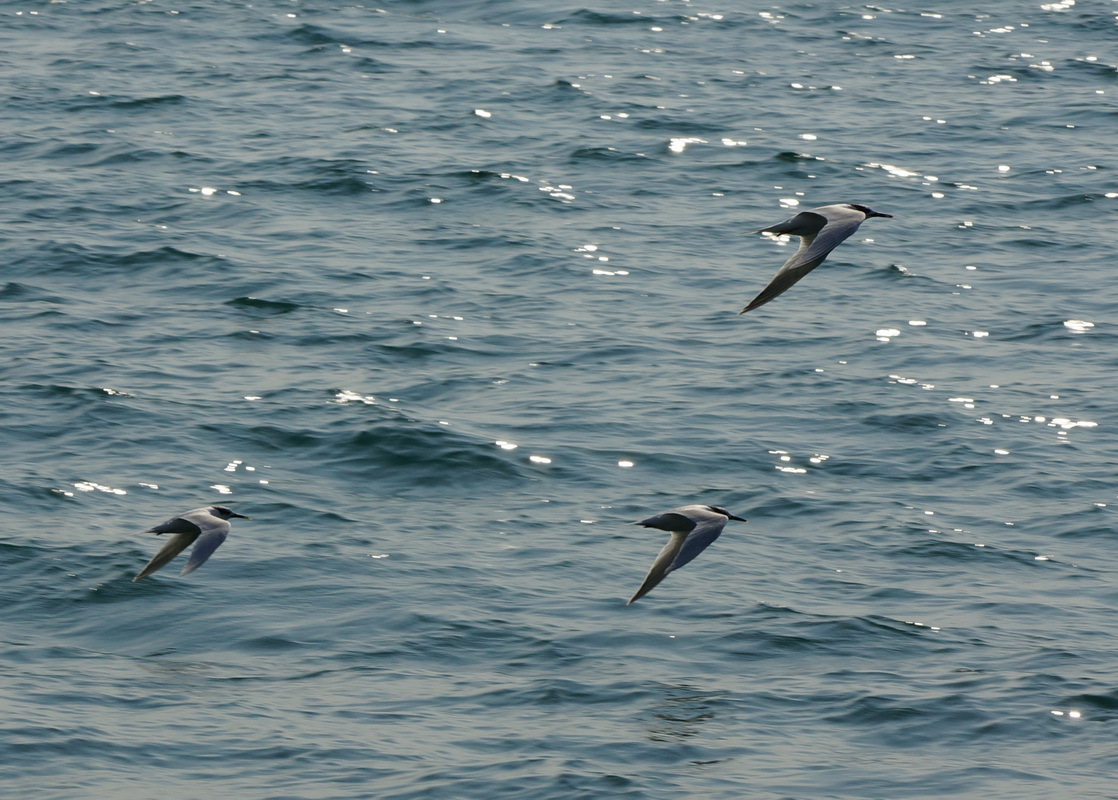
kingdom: Animalia
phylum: Chordata
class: Aves
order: Charadriiformes
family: Laridae
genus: Thalasseus
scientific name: Thalasseus sandvicensis
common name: Sandwich tern
